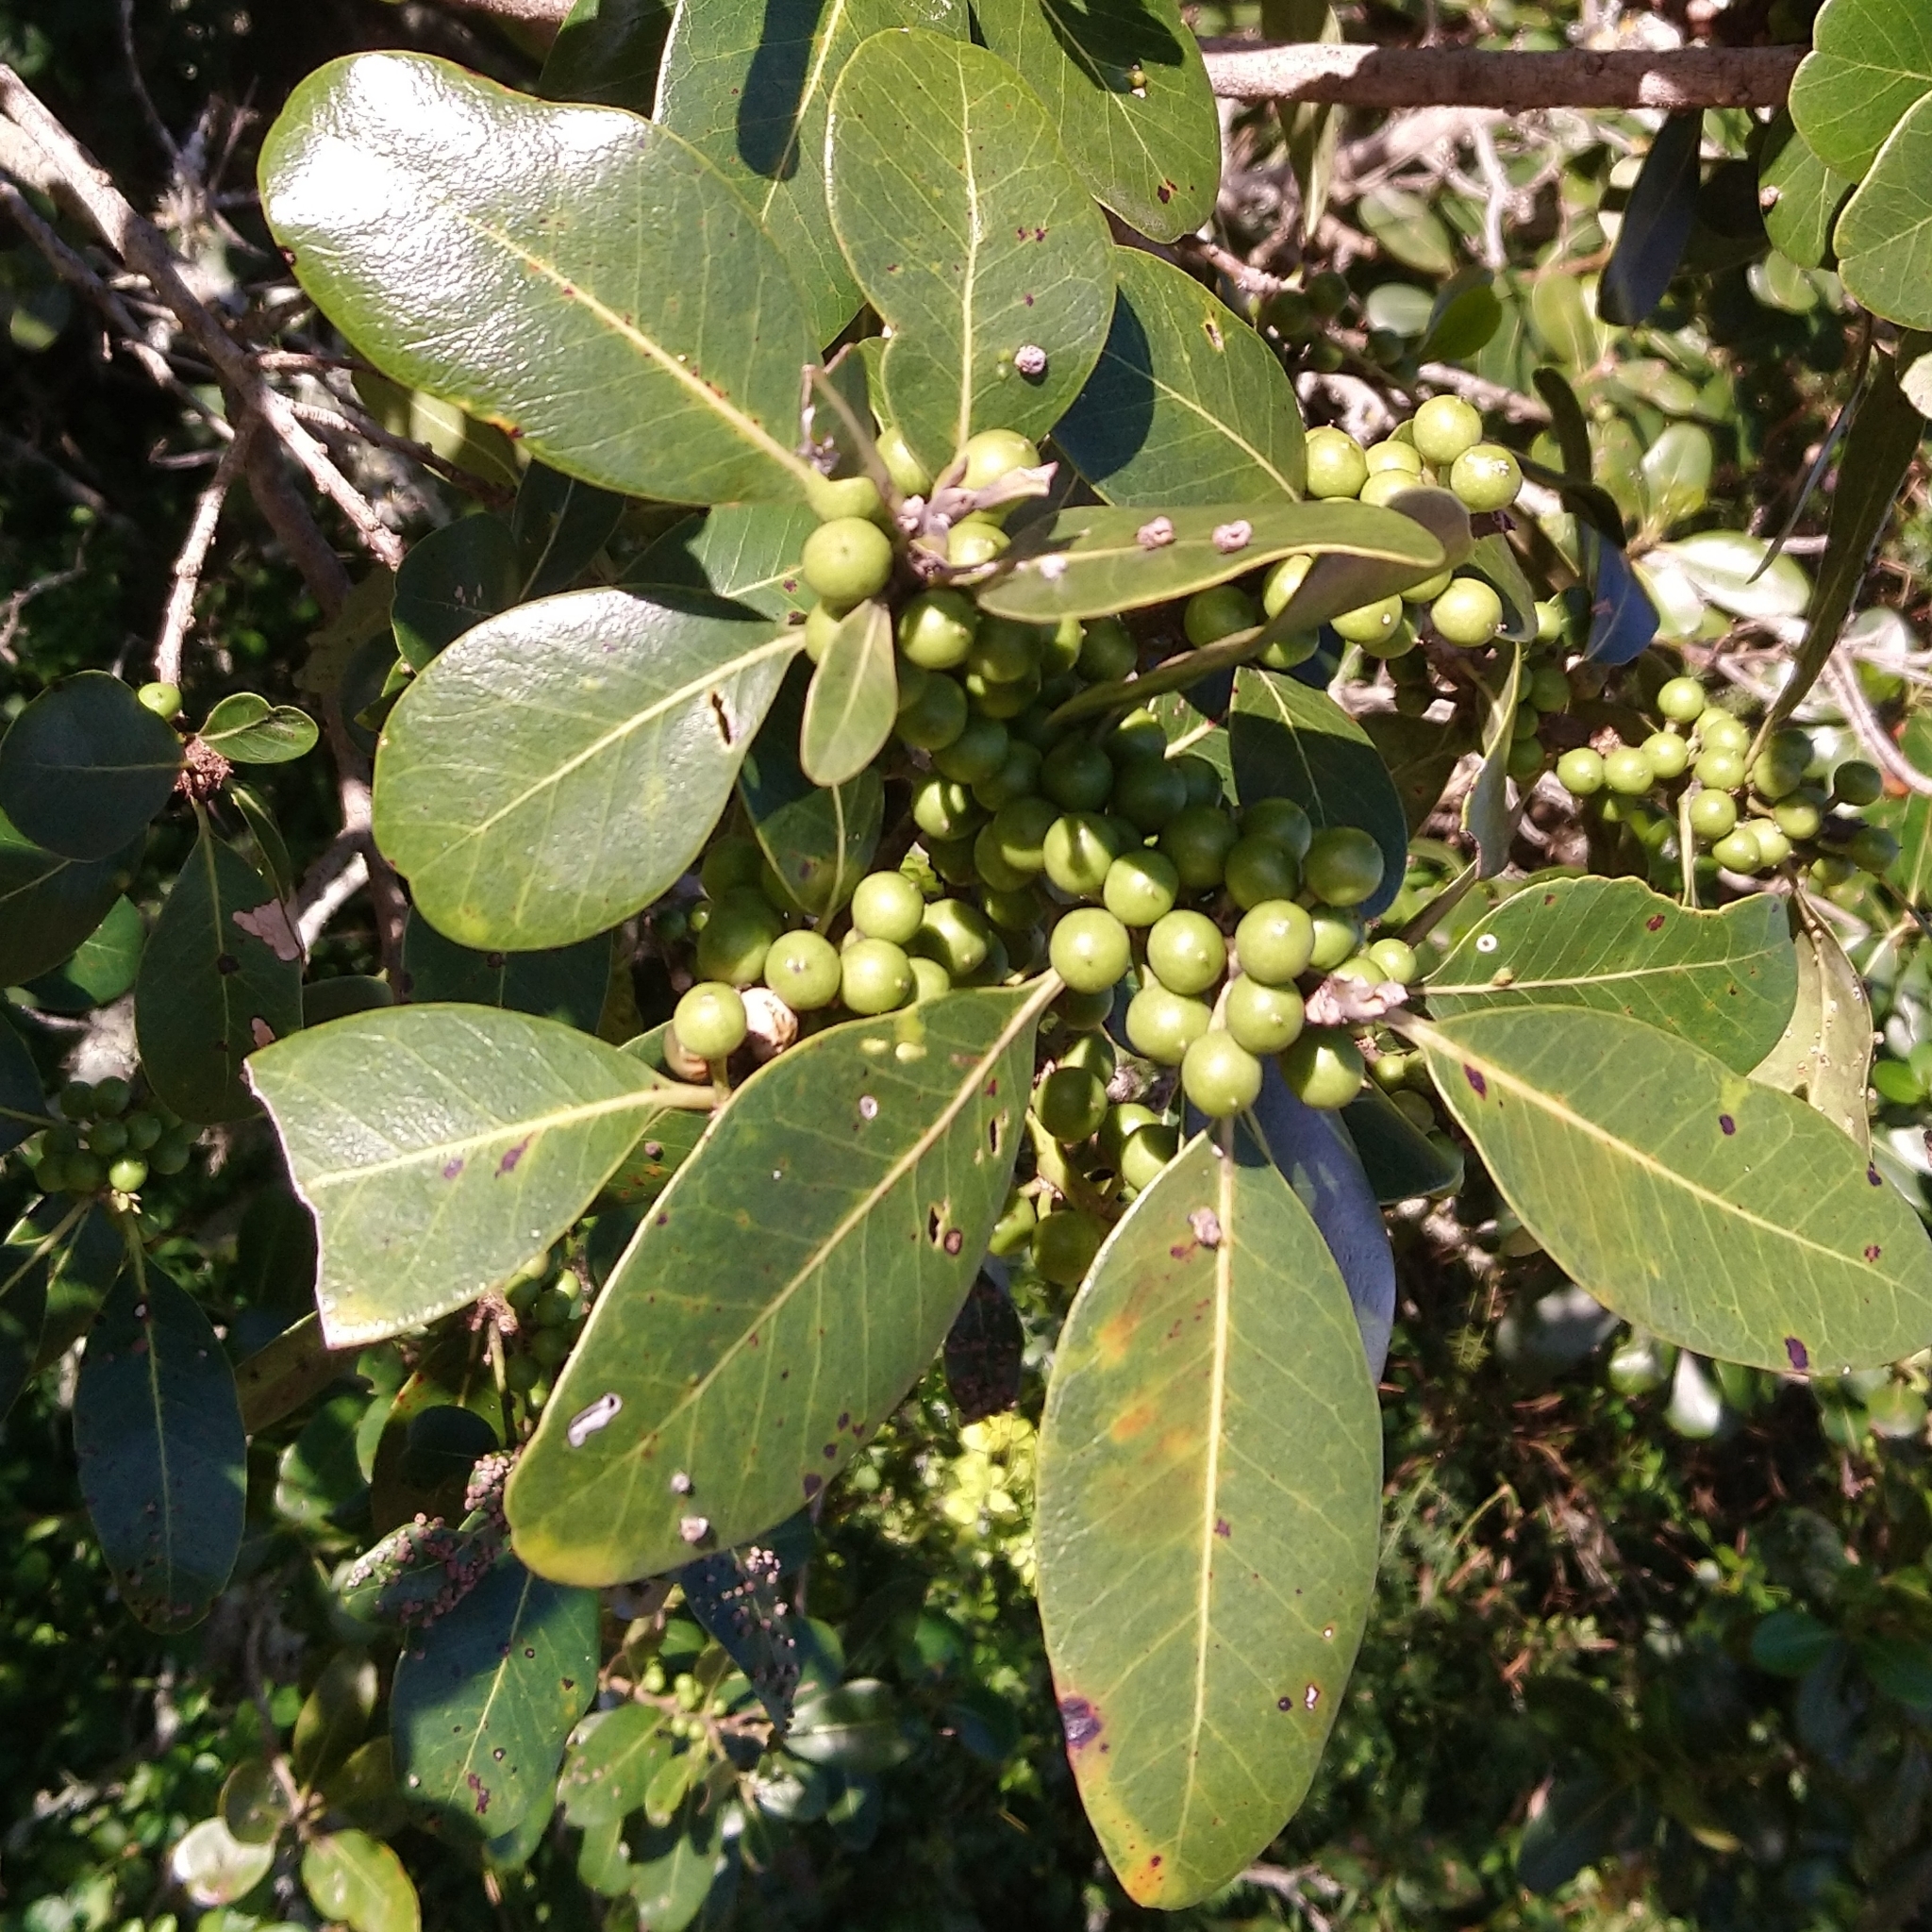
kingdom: Plantae
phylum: Tracheophyta
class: Magnoliopsida
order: Ericales
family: Sapotaceae
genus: Sideroxylon
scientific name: Sideroxylon inerme
